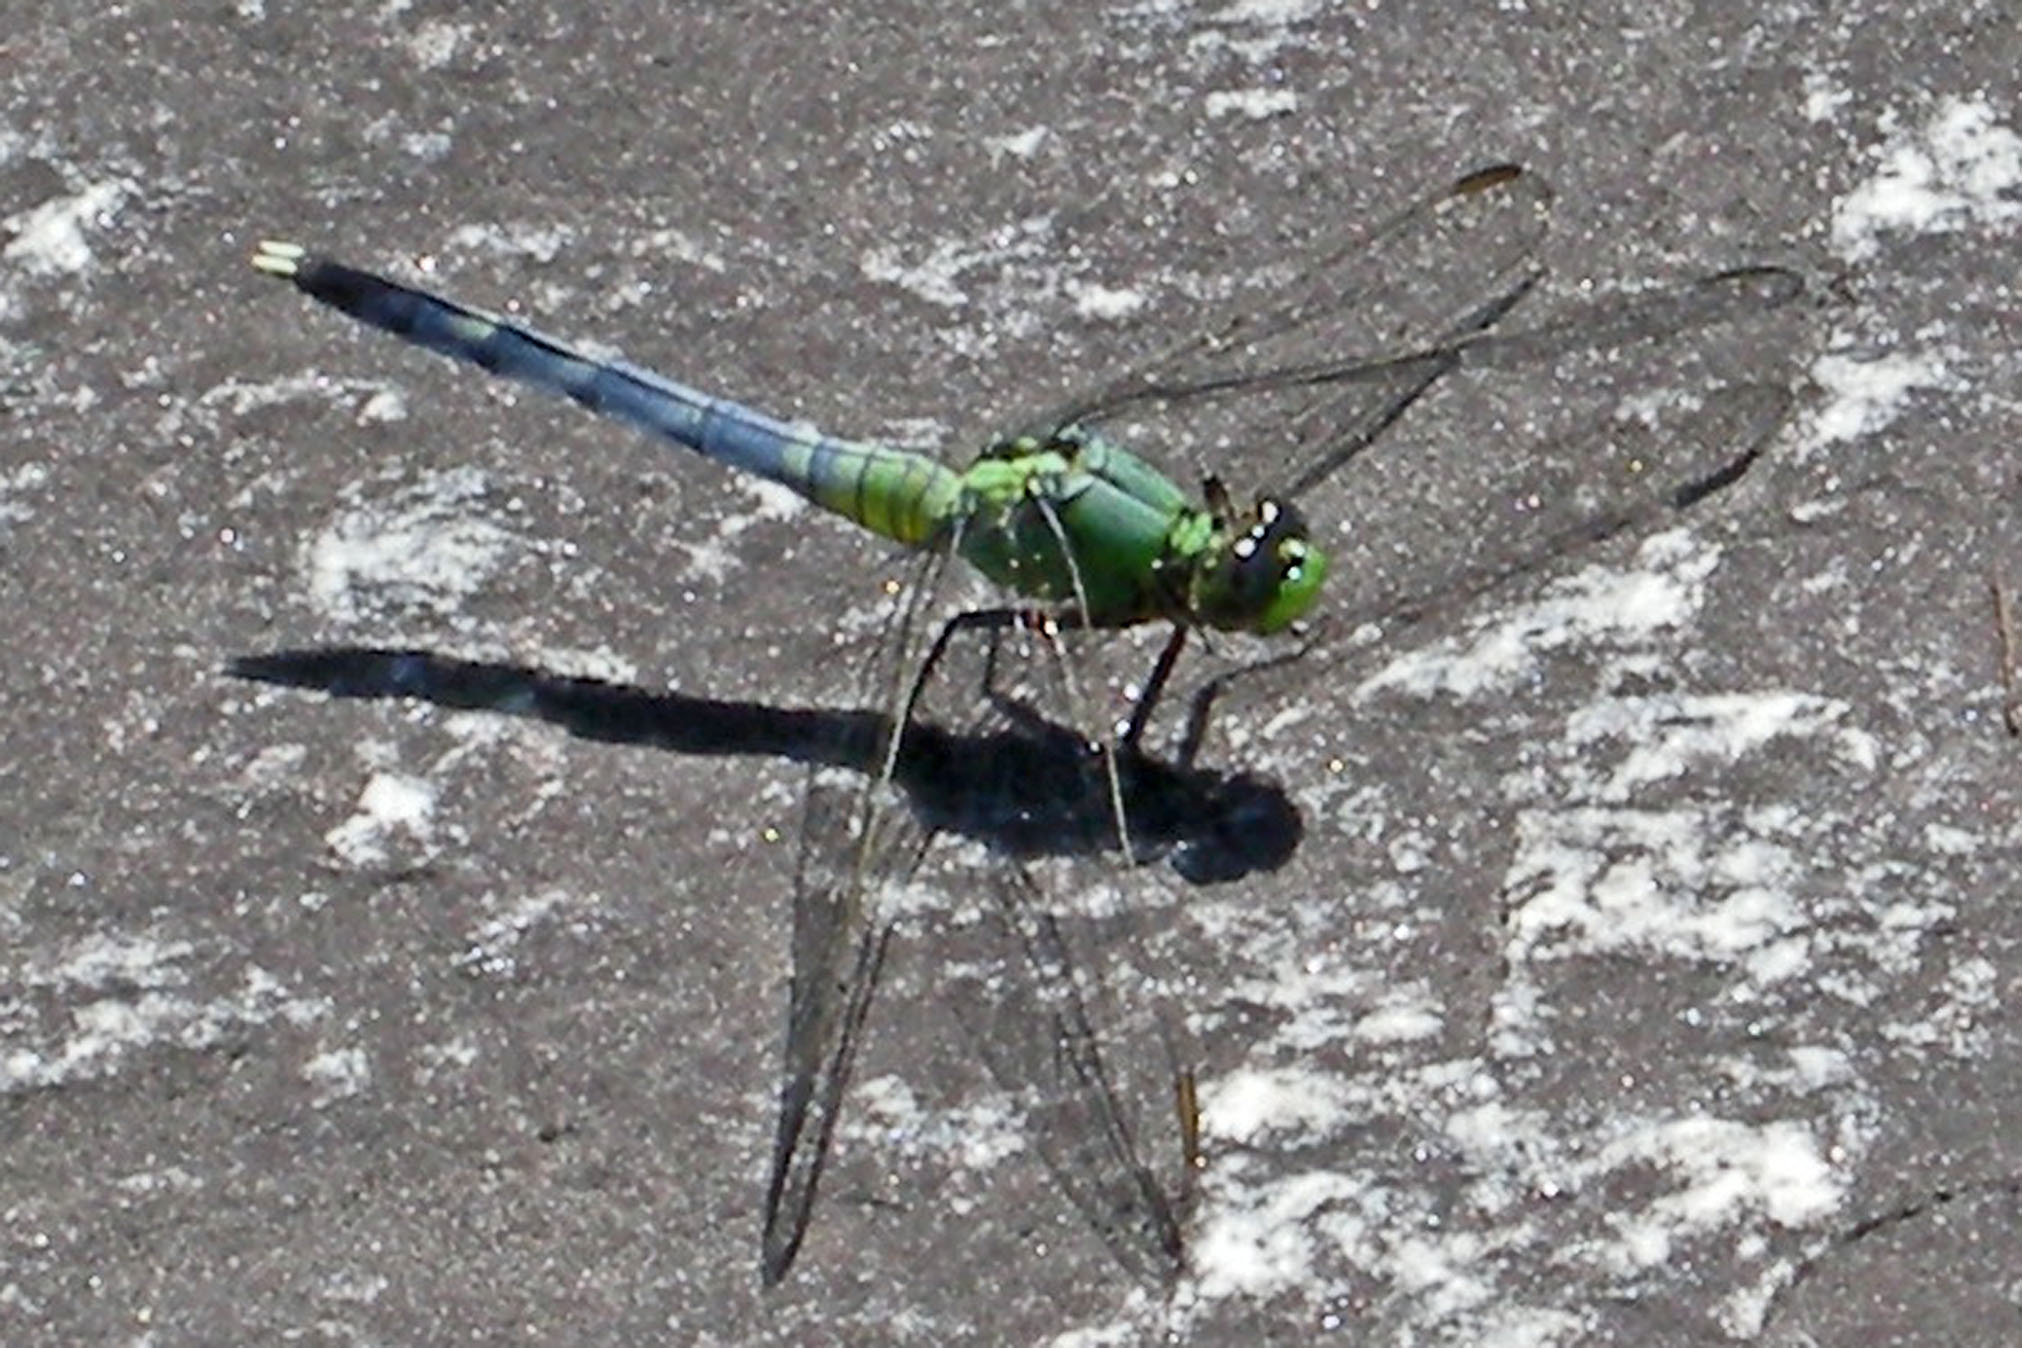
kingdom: Animalia
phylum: Arthropoda
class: Insecta
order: Odonata
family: Libellulidae
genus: Erythemis
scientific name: Erythemis simplicicollis
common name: Eastern pondhawk
